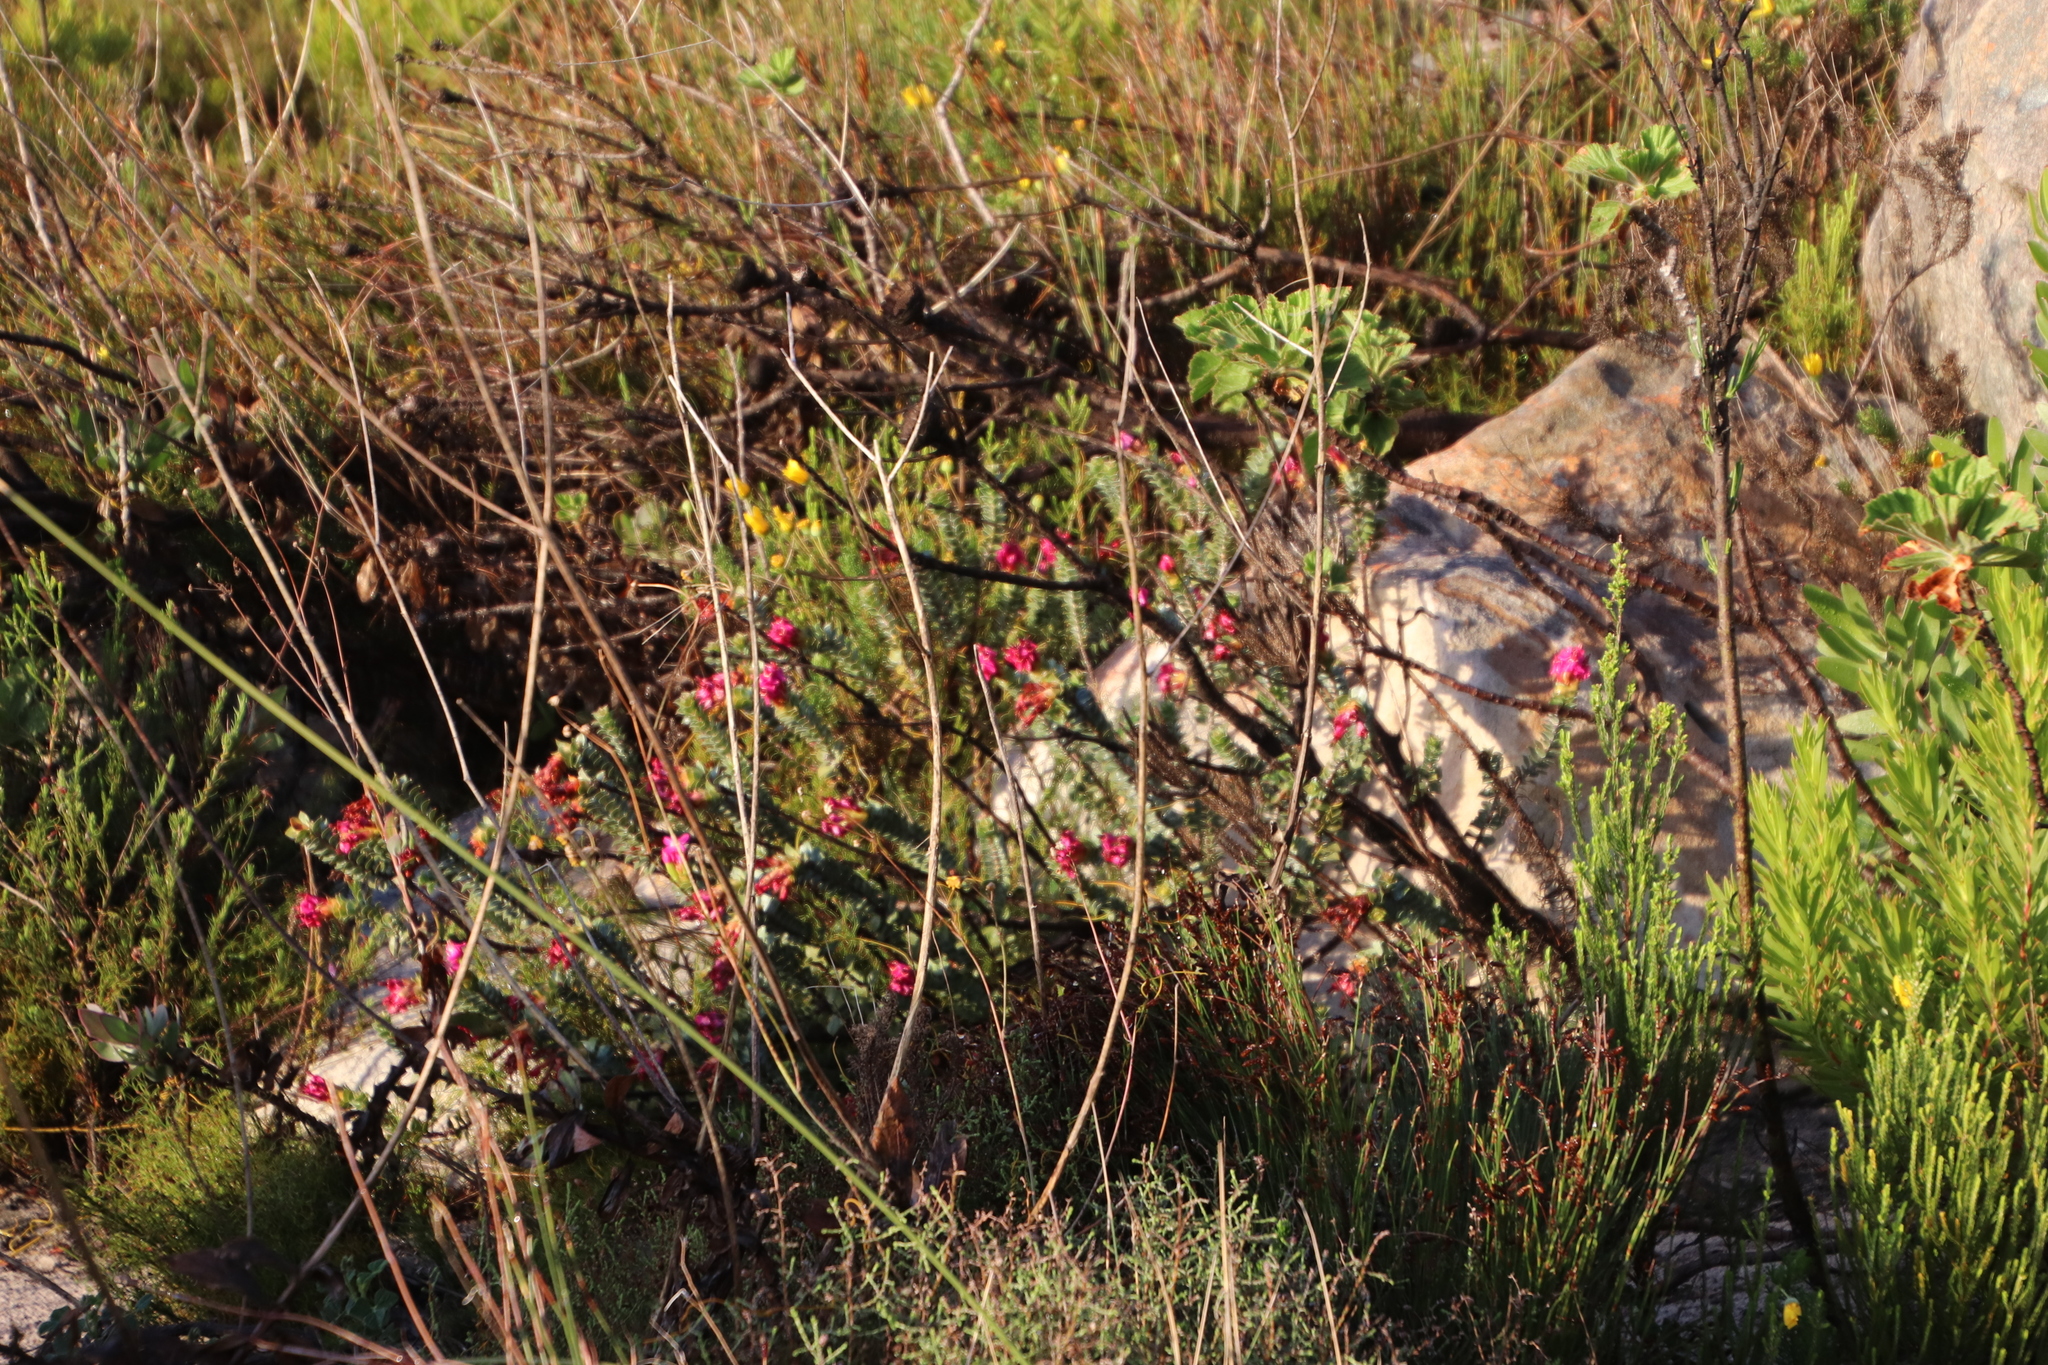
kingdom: Plantae
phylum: Tracheophyta
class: Magnoliopsida
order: Myrtales
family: Penaeaceae
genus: Saltera
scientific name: Saltera sarcocolla
